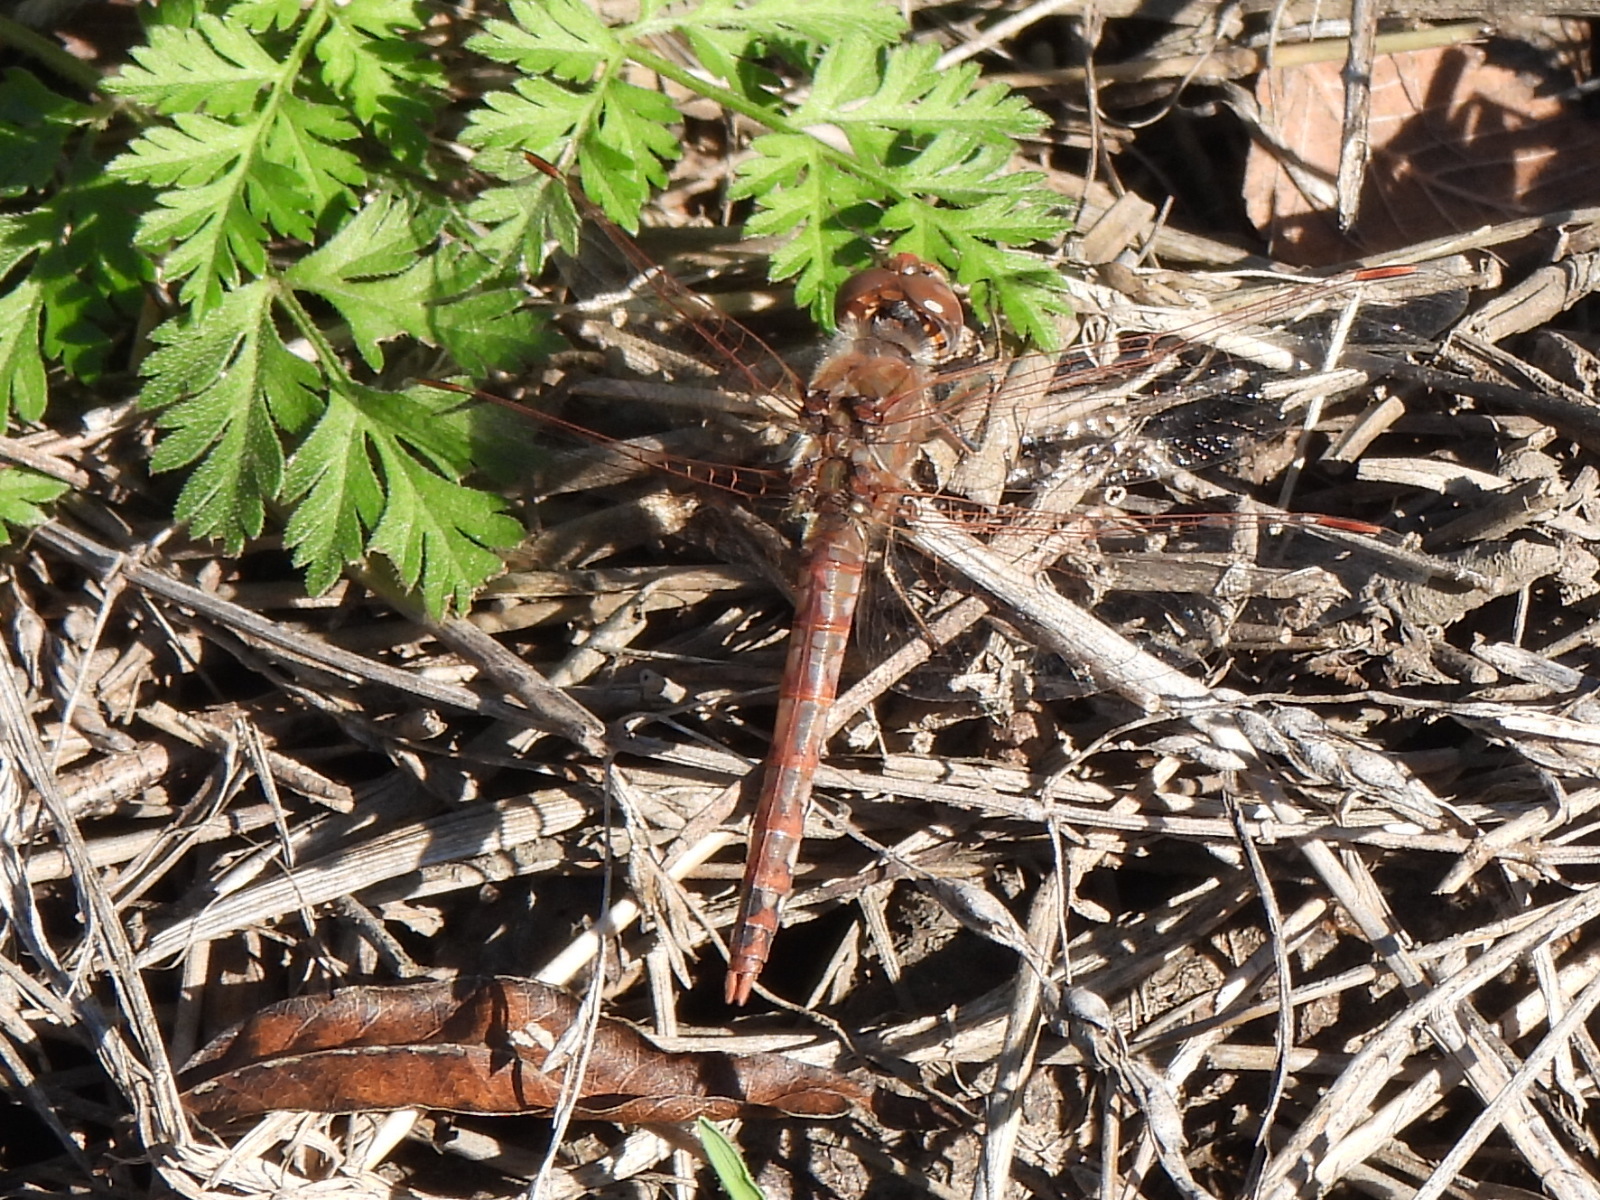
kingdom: Animalia
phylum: Arthropoda
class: Insecta
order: Odonata
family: Libellulidae
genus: Sympetrum
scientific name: Sympetrum corruptum
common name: Variegated meadowhawk
